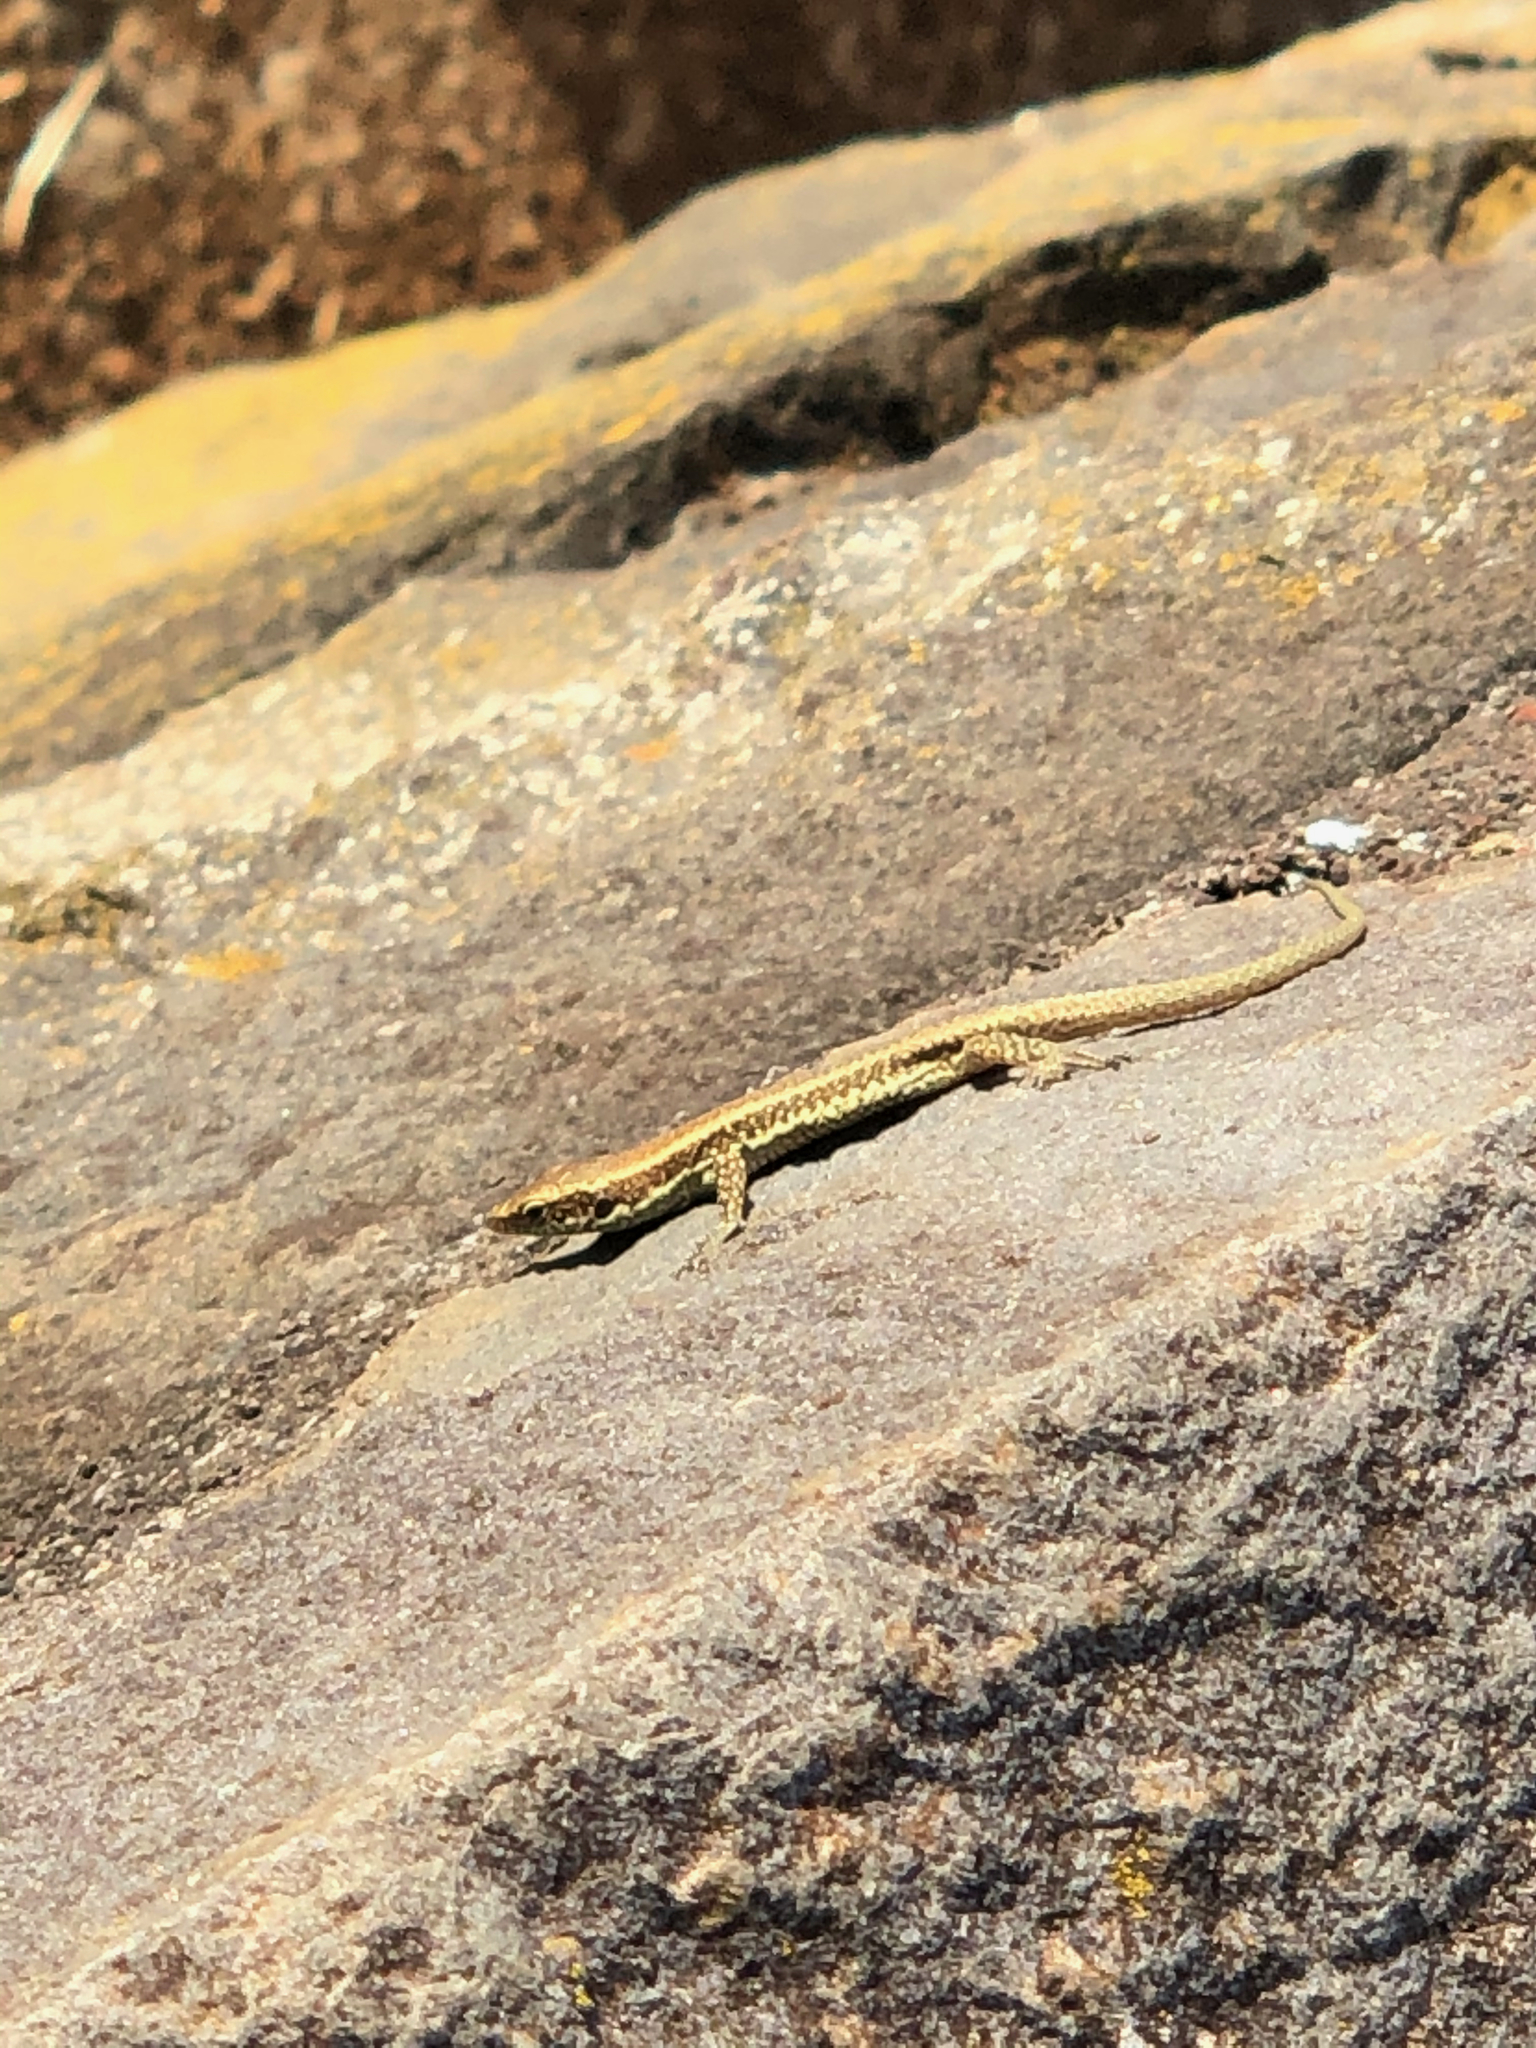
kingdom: Animalia
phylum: Chordata
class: Squamata
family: Lacertidae
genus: Teira
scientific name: Teira dugesii
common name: Madeira lizard
